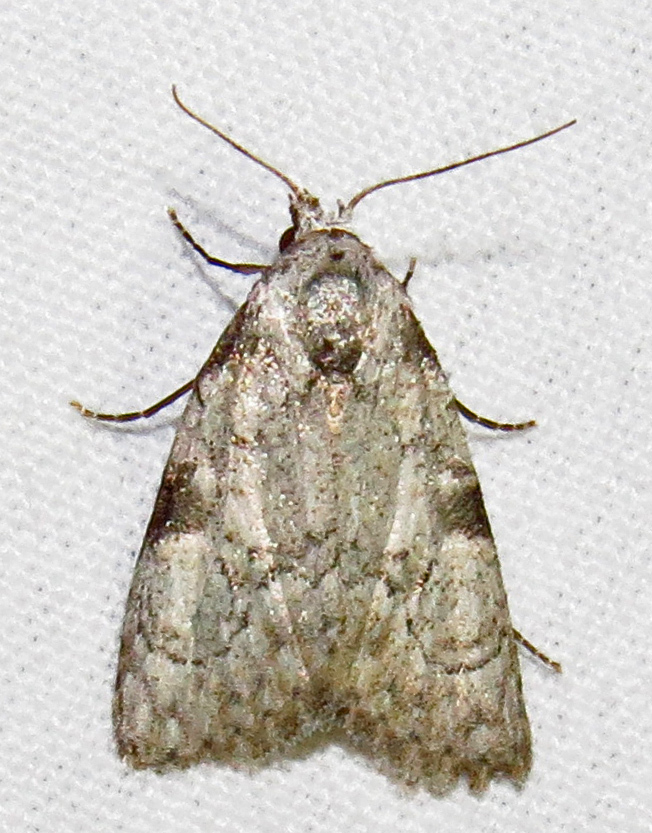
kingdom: Animalia
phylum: Arthropoda
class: Insecta
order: Lepidoptera
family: Nolidae
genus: Meganola
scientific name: Meganola minuscula
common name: Confused meganola moth
